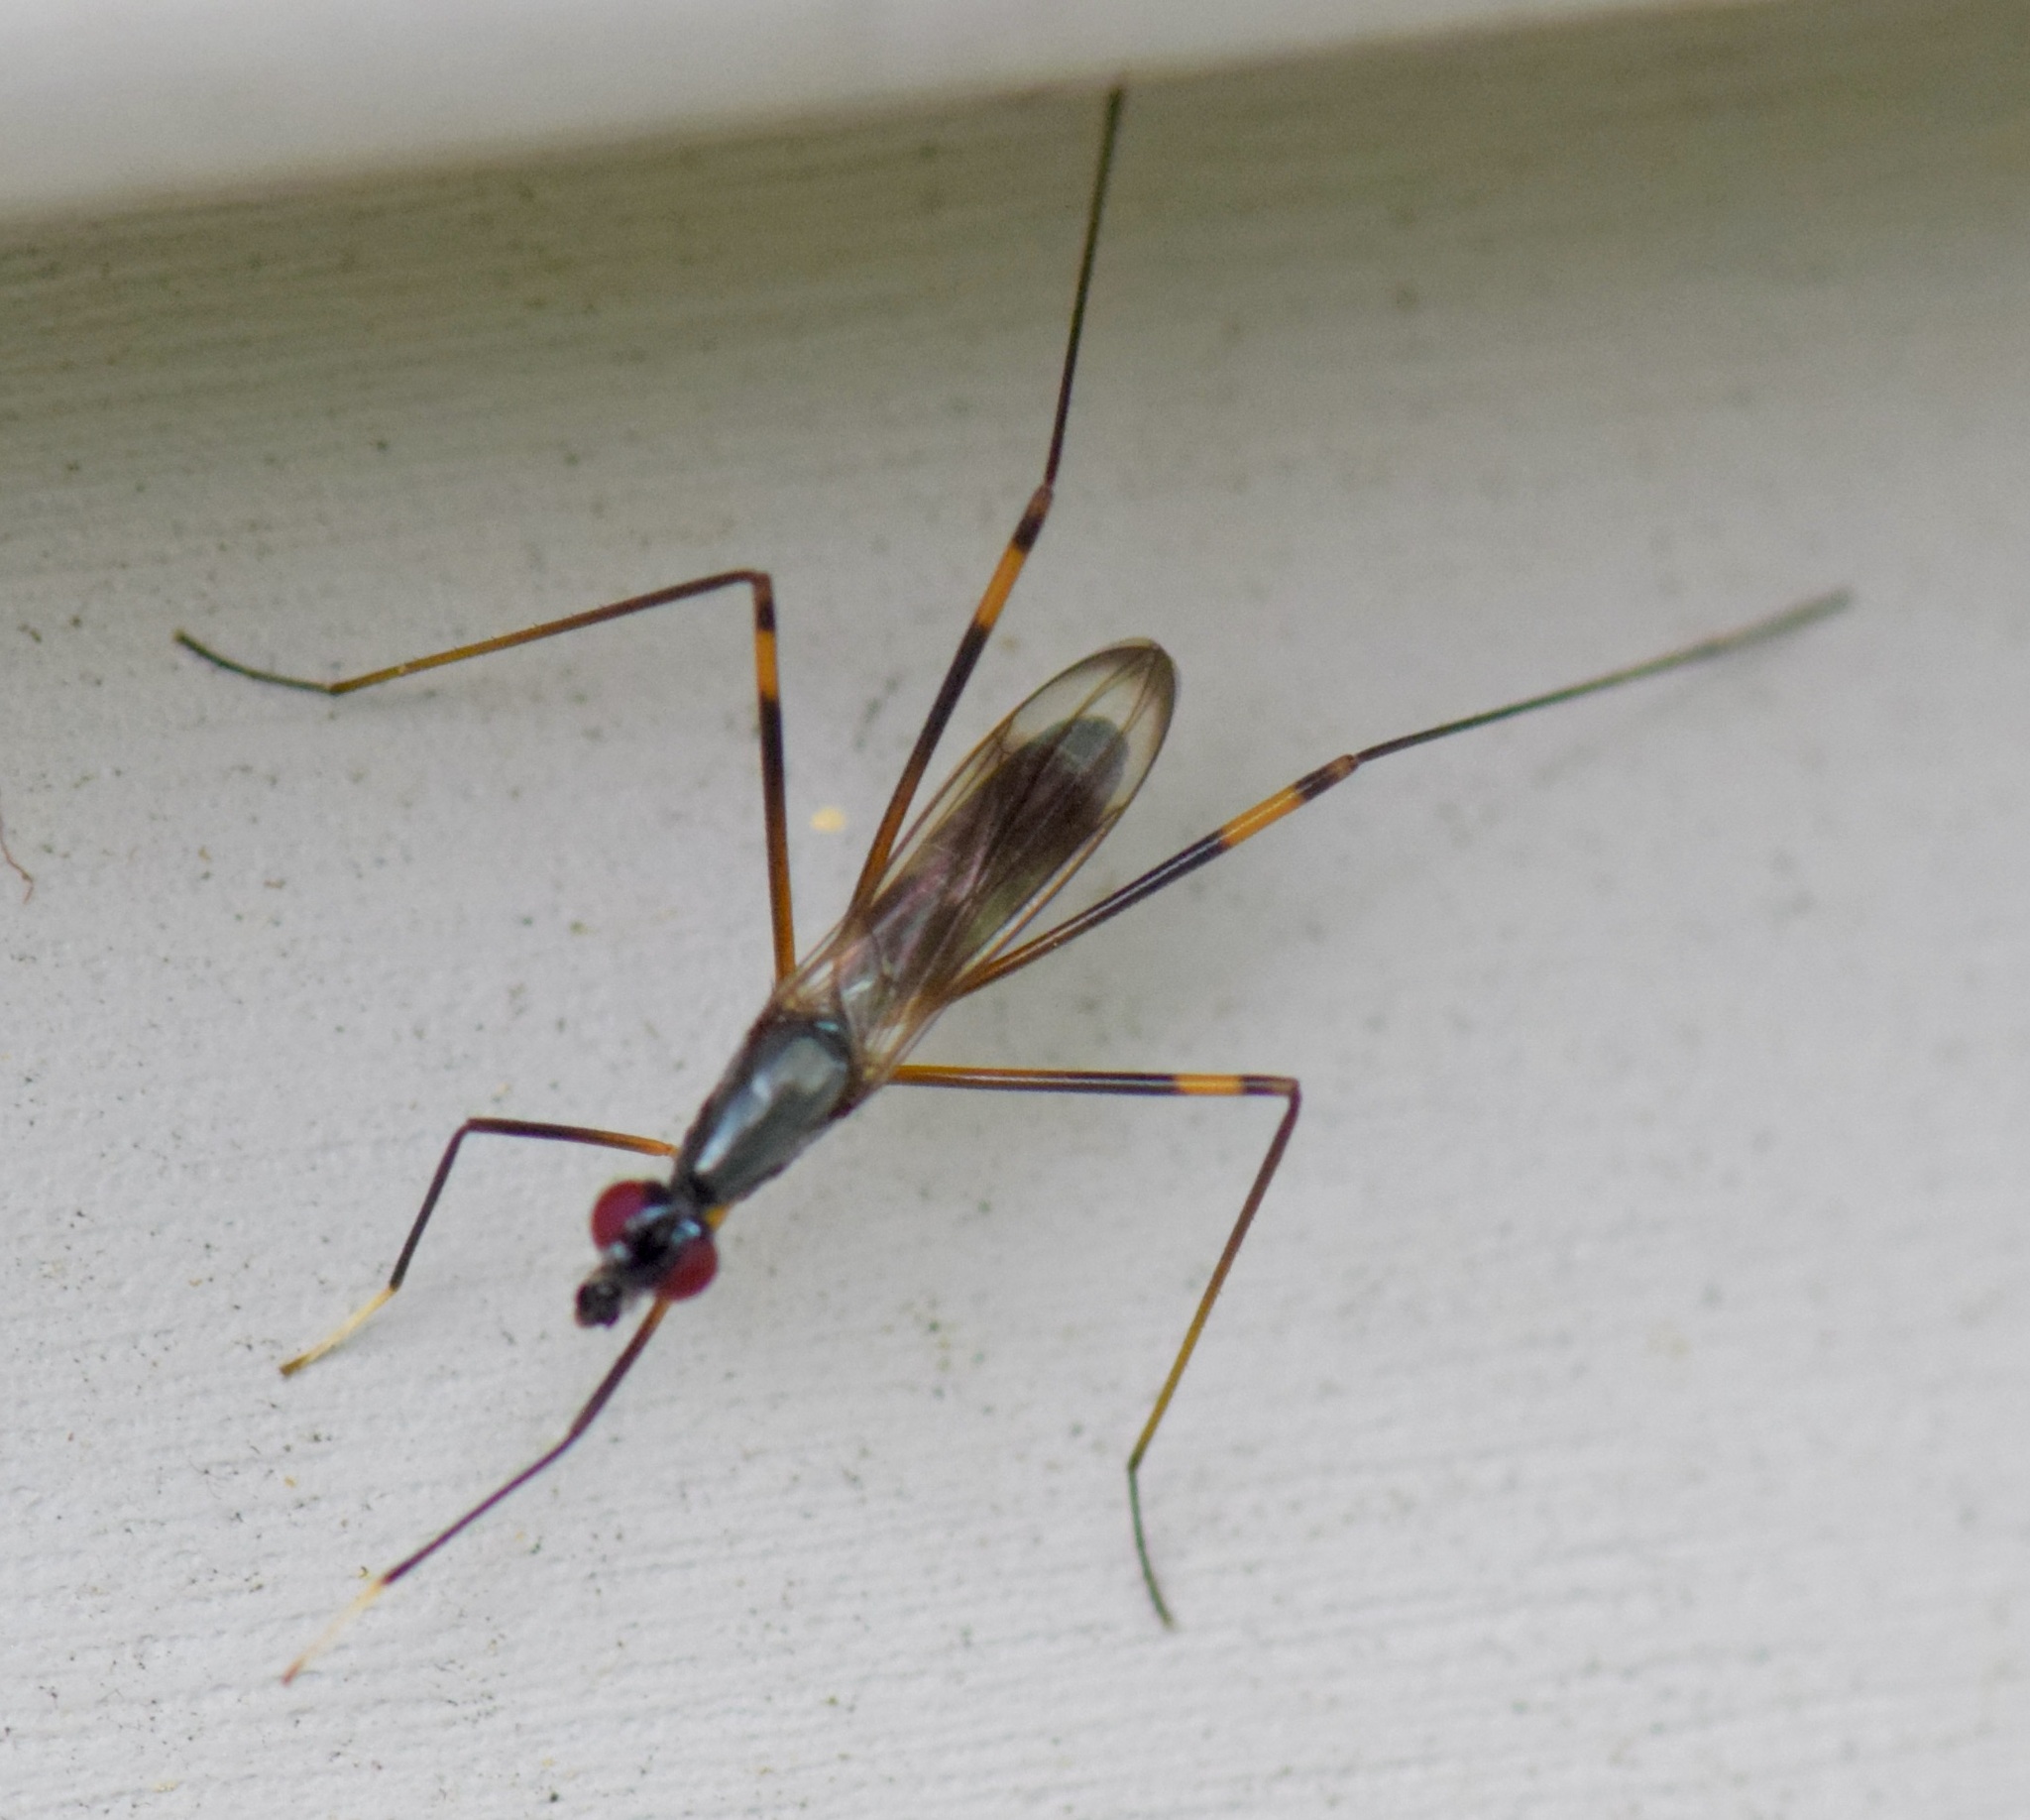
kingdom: Animalia
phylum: Arthropoda
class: Insecta
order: Diptera
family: Micropezidae
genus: Rainieria
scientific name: Rainieria antennaepes
